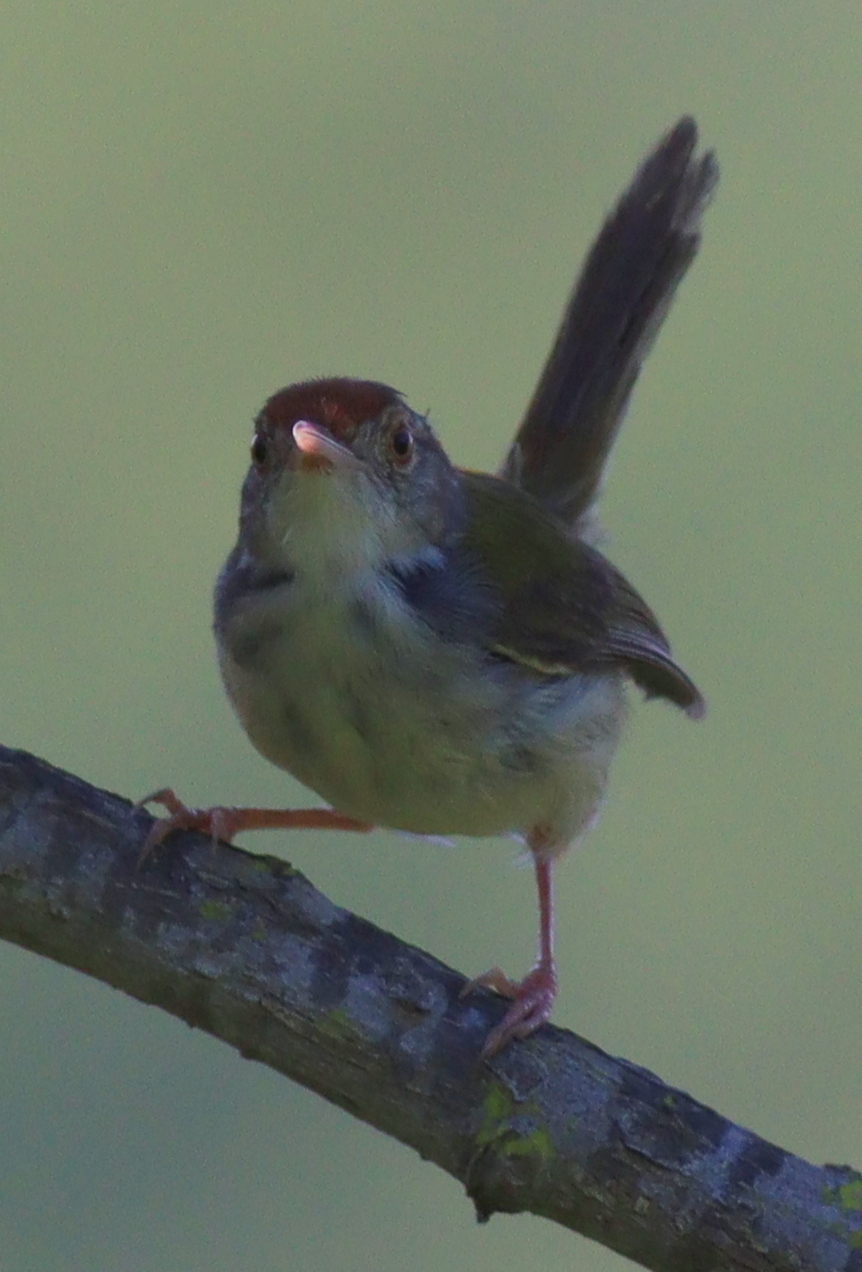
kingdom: Animalia
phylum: Chordata
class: Aves
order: Passeriformes
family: Cisticolidae
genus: Orthotomus
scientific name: Orthotomus sutorius
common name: Common tailorbird
